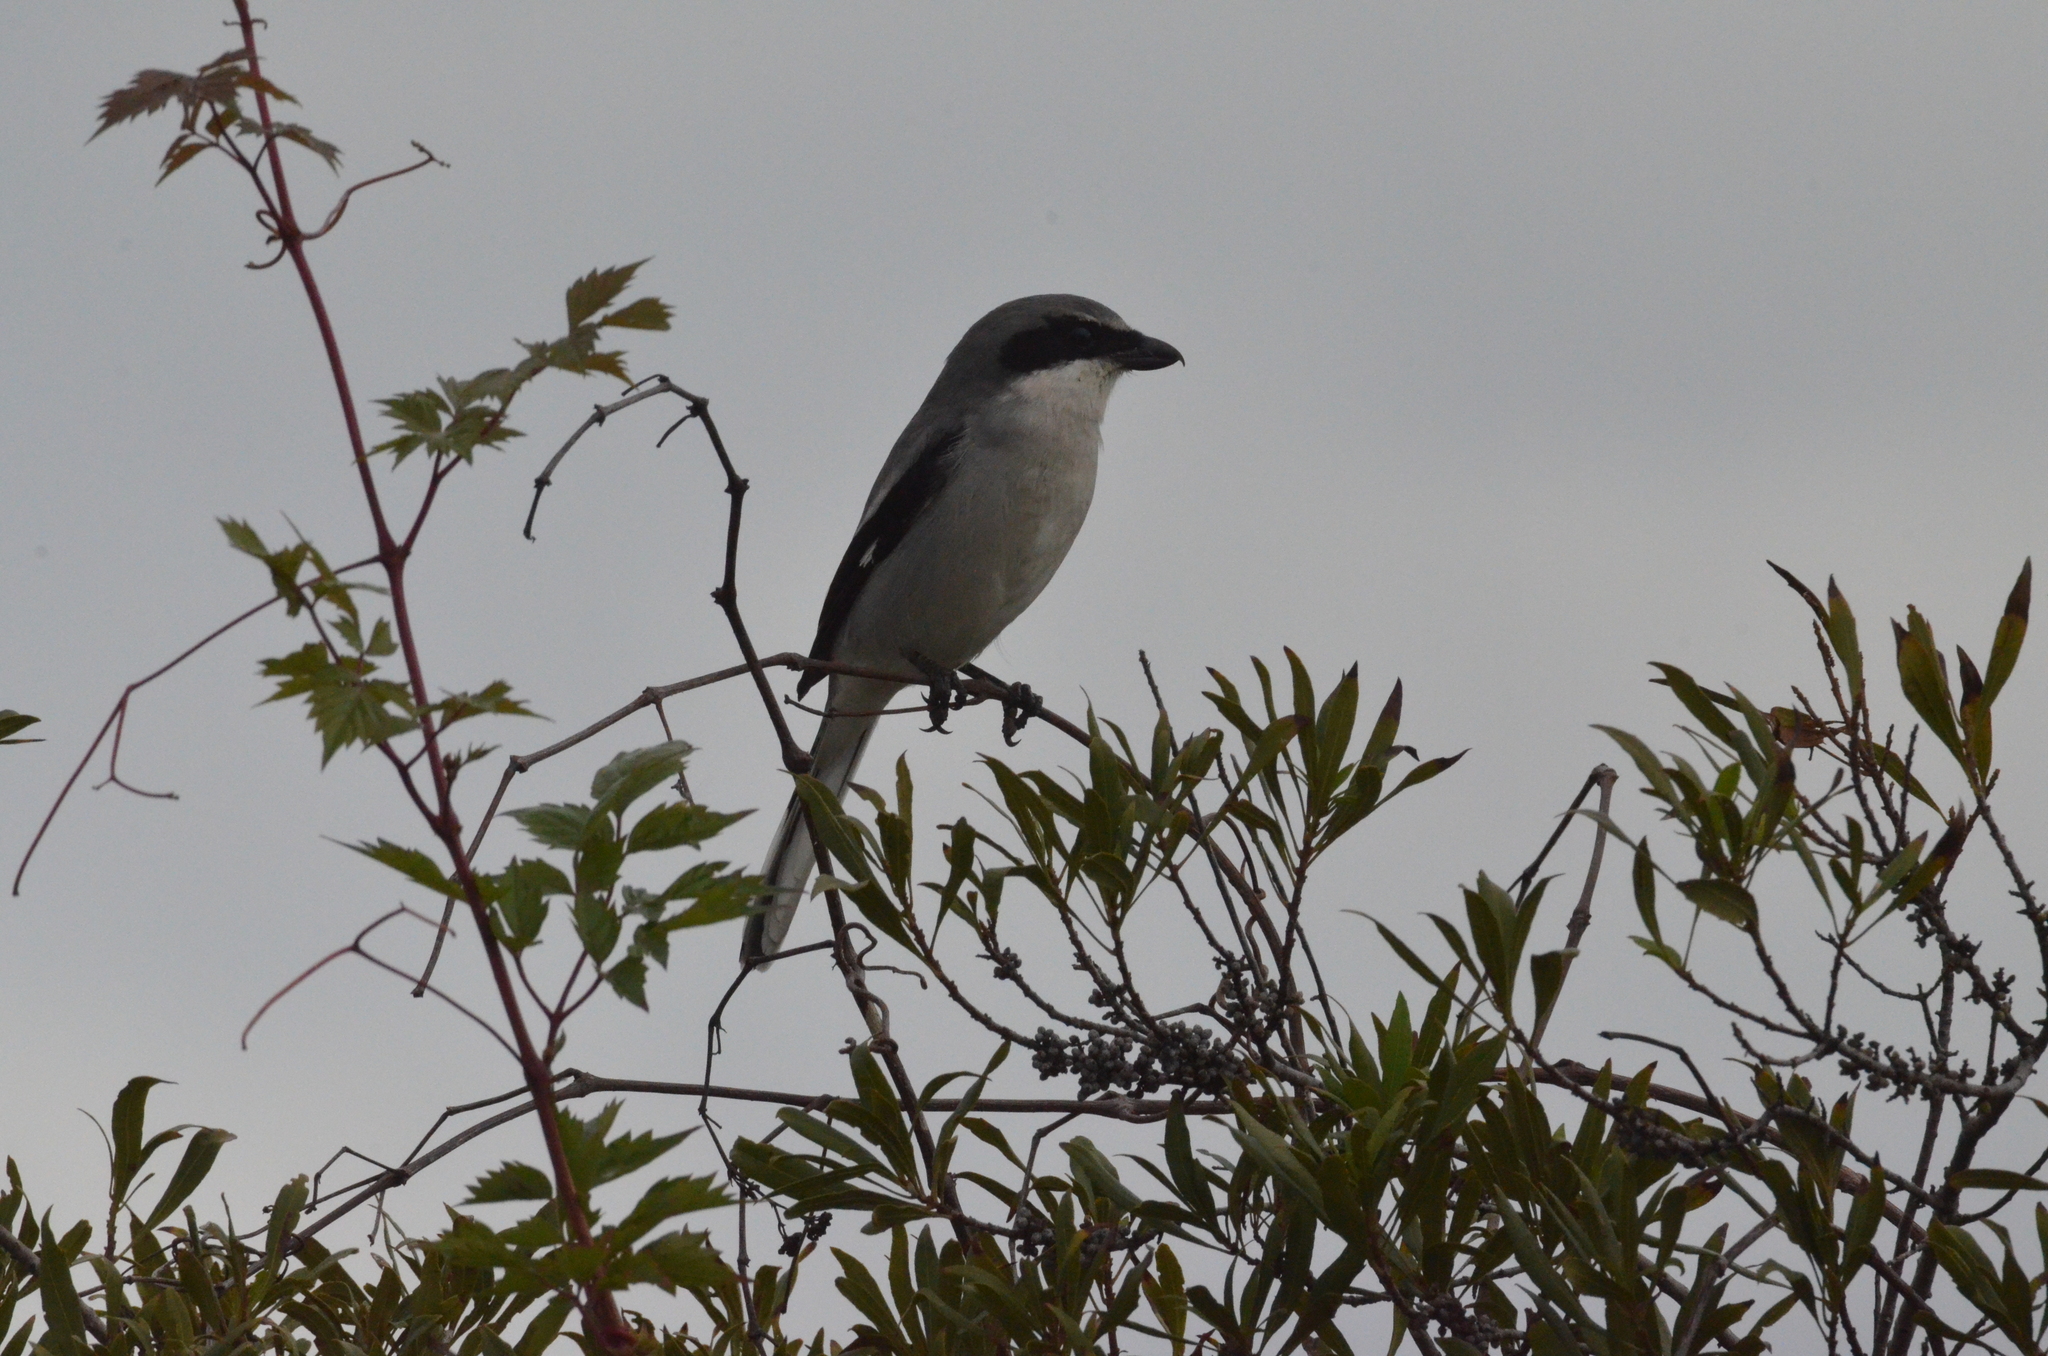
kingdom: Animalia
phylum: Chordata
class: Aves
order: Passeriformes
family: Laniidae
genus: Lanius
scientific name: Lanius ludovicianus
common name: Loggerhead shrike
